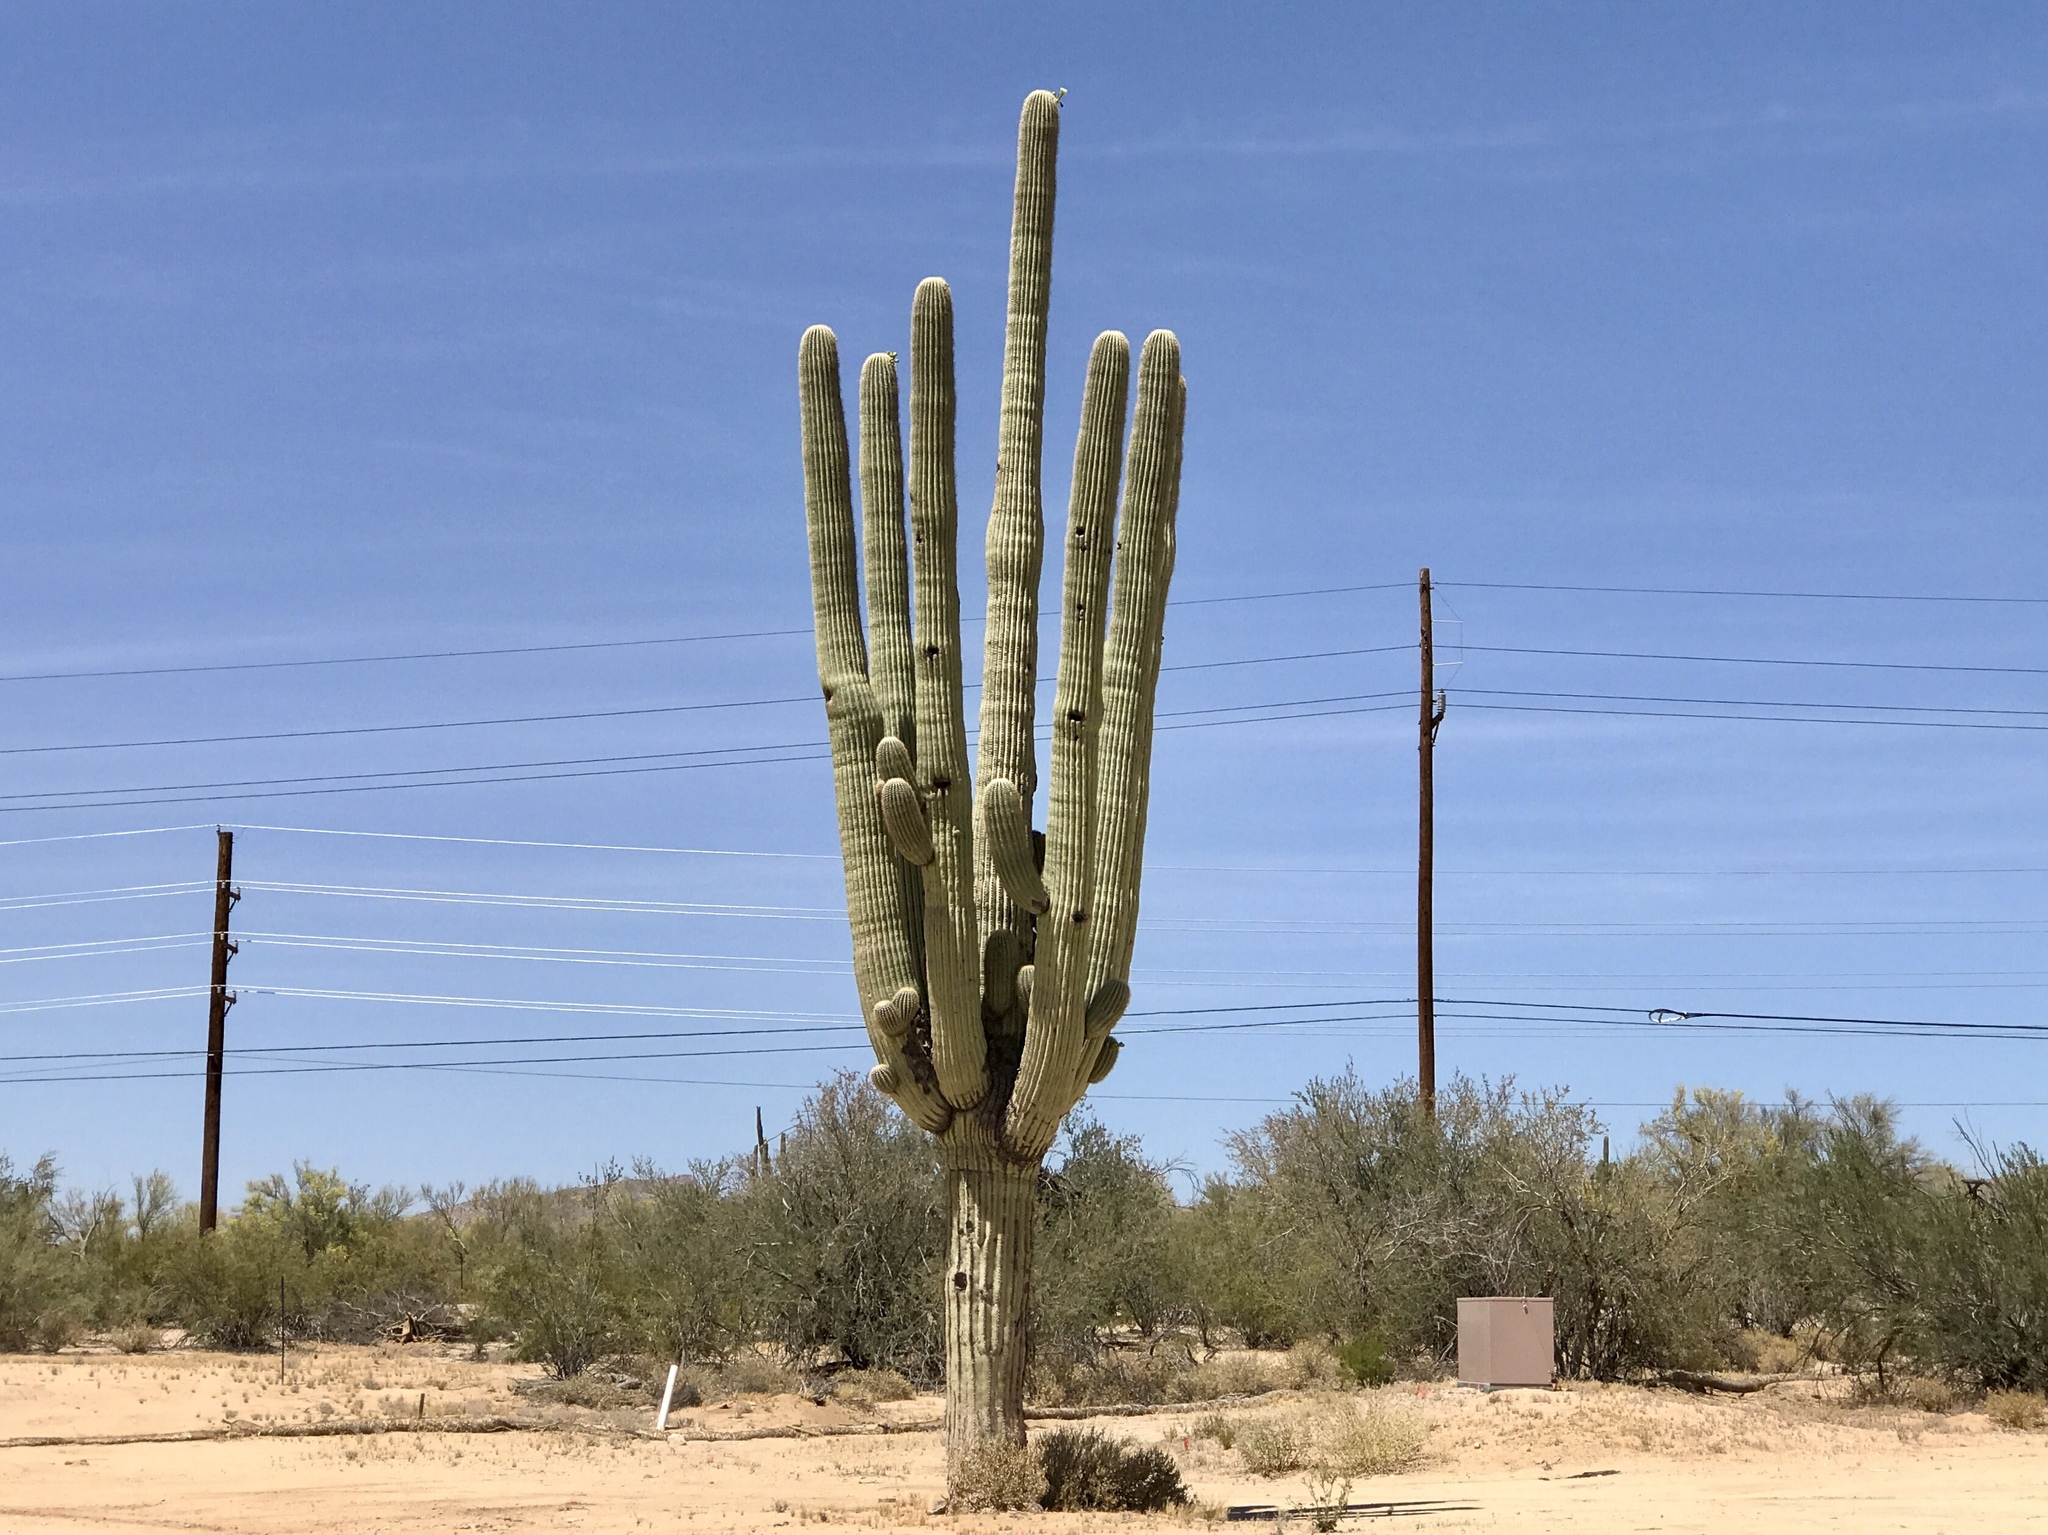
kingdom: Plantae
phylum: Tracheophyta
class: Magnoliopsida
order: Caryophyllales
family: Cactaceae
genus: Carnegiea
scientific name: Carnegiea gigantea
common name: Saguaro
